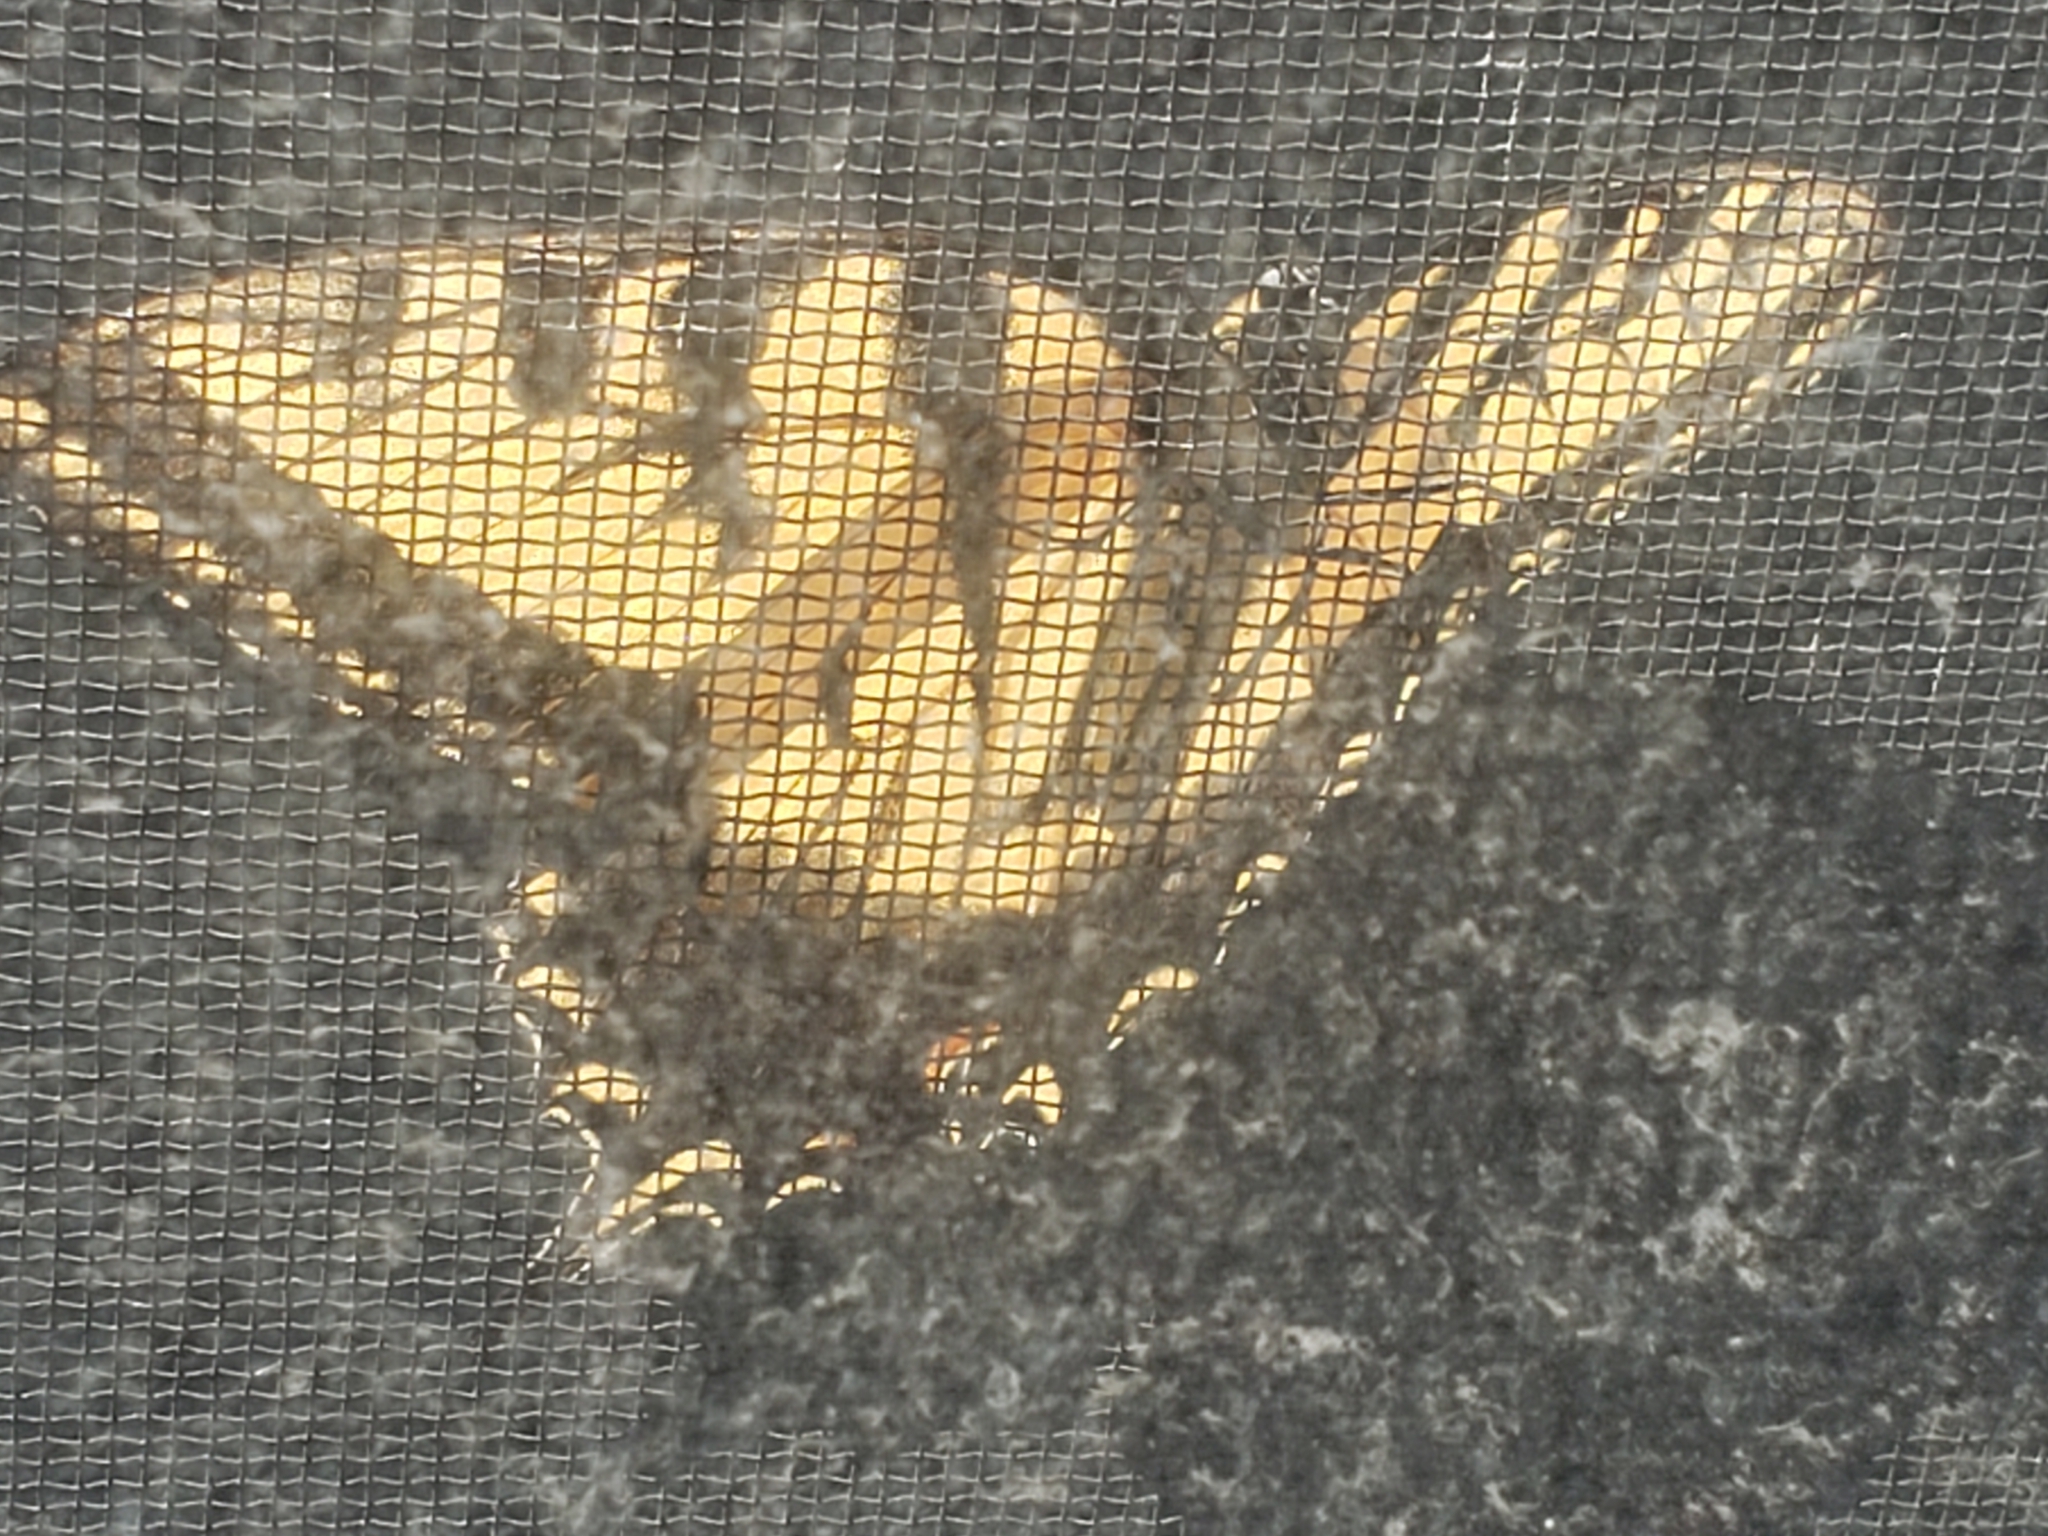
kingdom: Animalia
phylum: Arthropoda
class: Insecta
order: Lepidoptera
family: Papilionidae
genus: Papilio
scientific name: Papilio glaucus
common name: Tiger swallowtail
